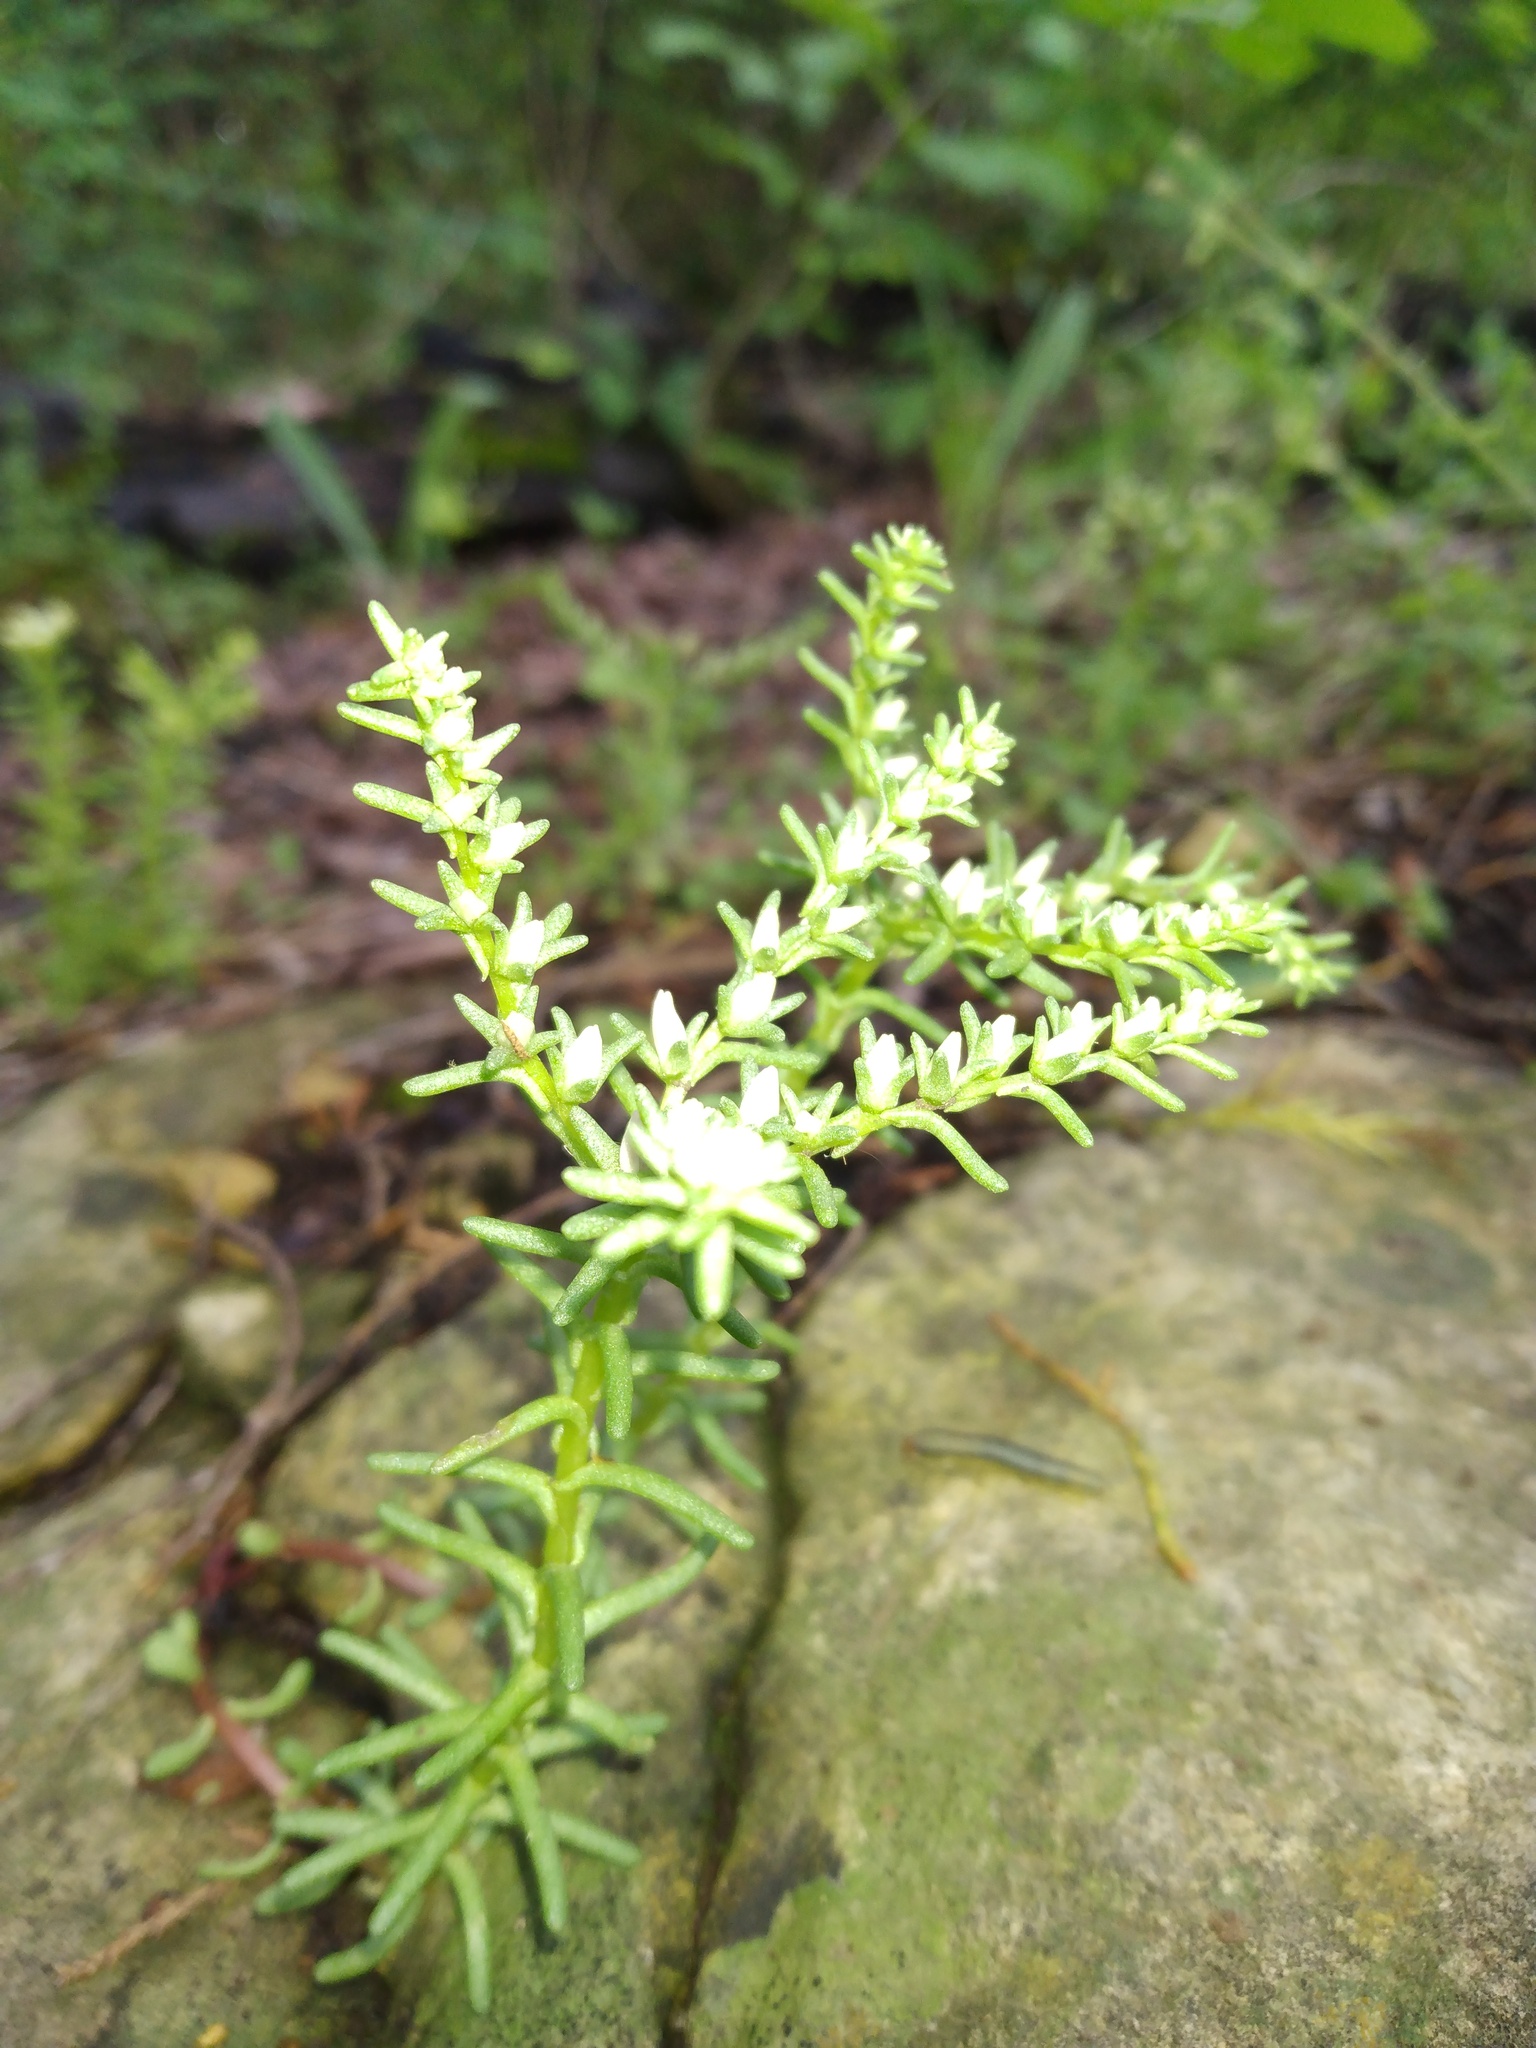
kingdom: Plantae
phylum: Tracheophyta
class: Magnoliopsida
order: Saxifragales
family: Crassulaceae
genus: Sedum
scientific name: Sedum pulchellum
